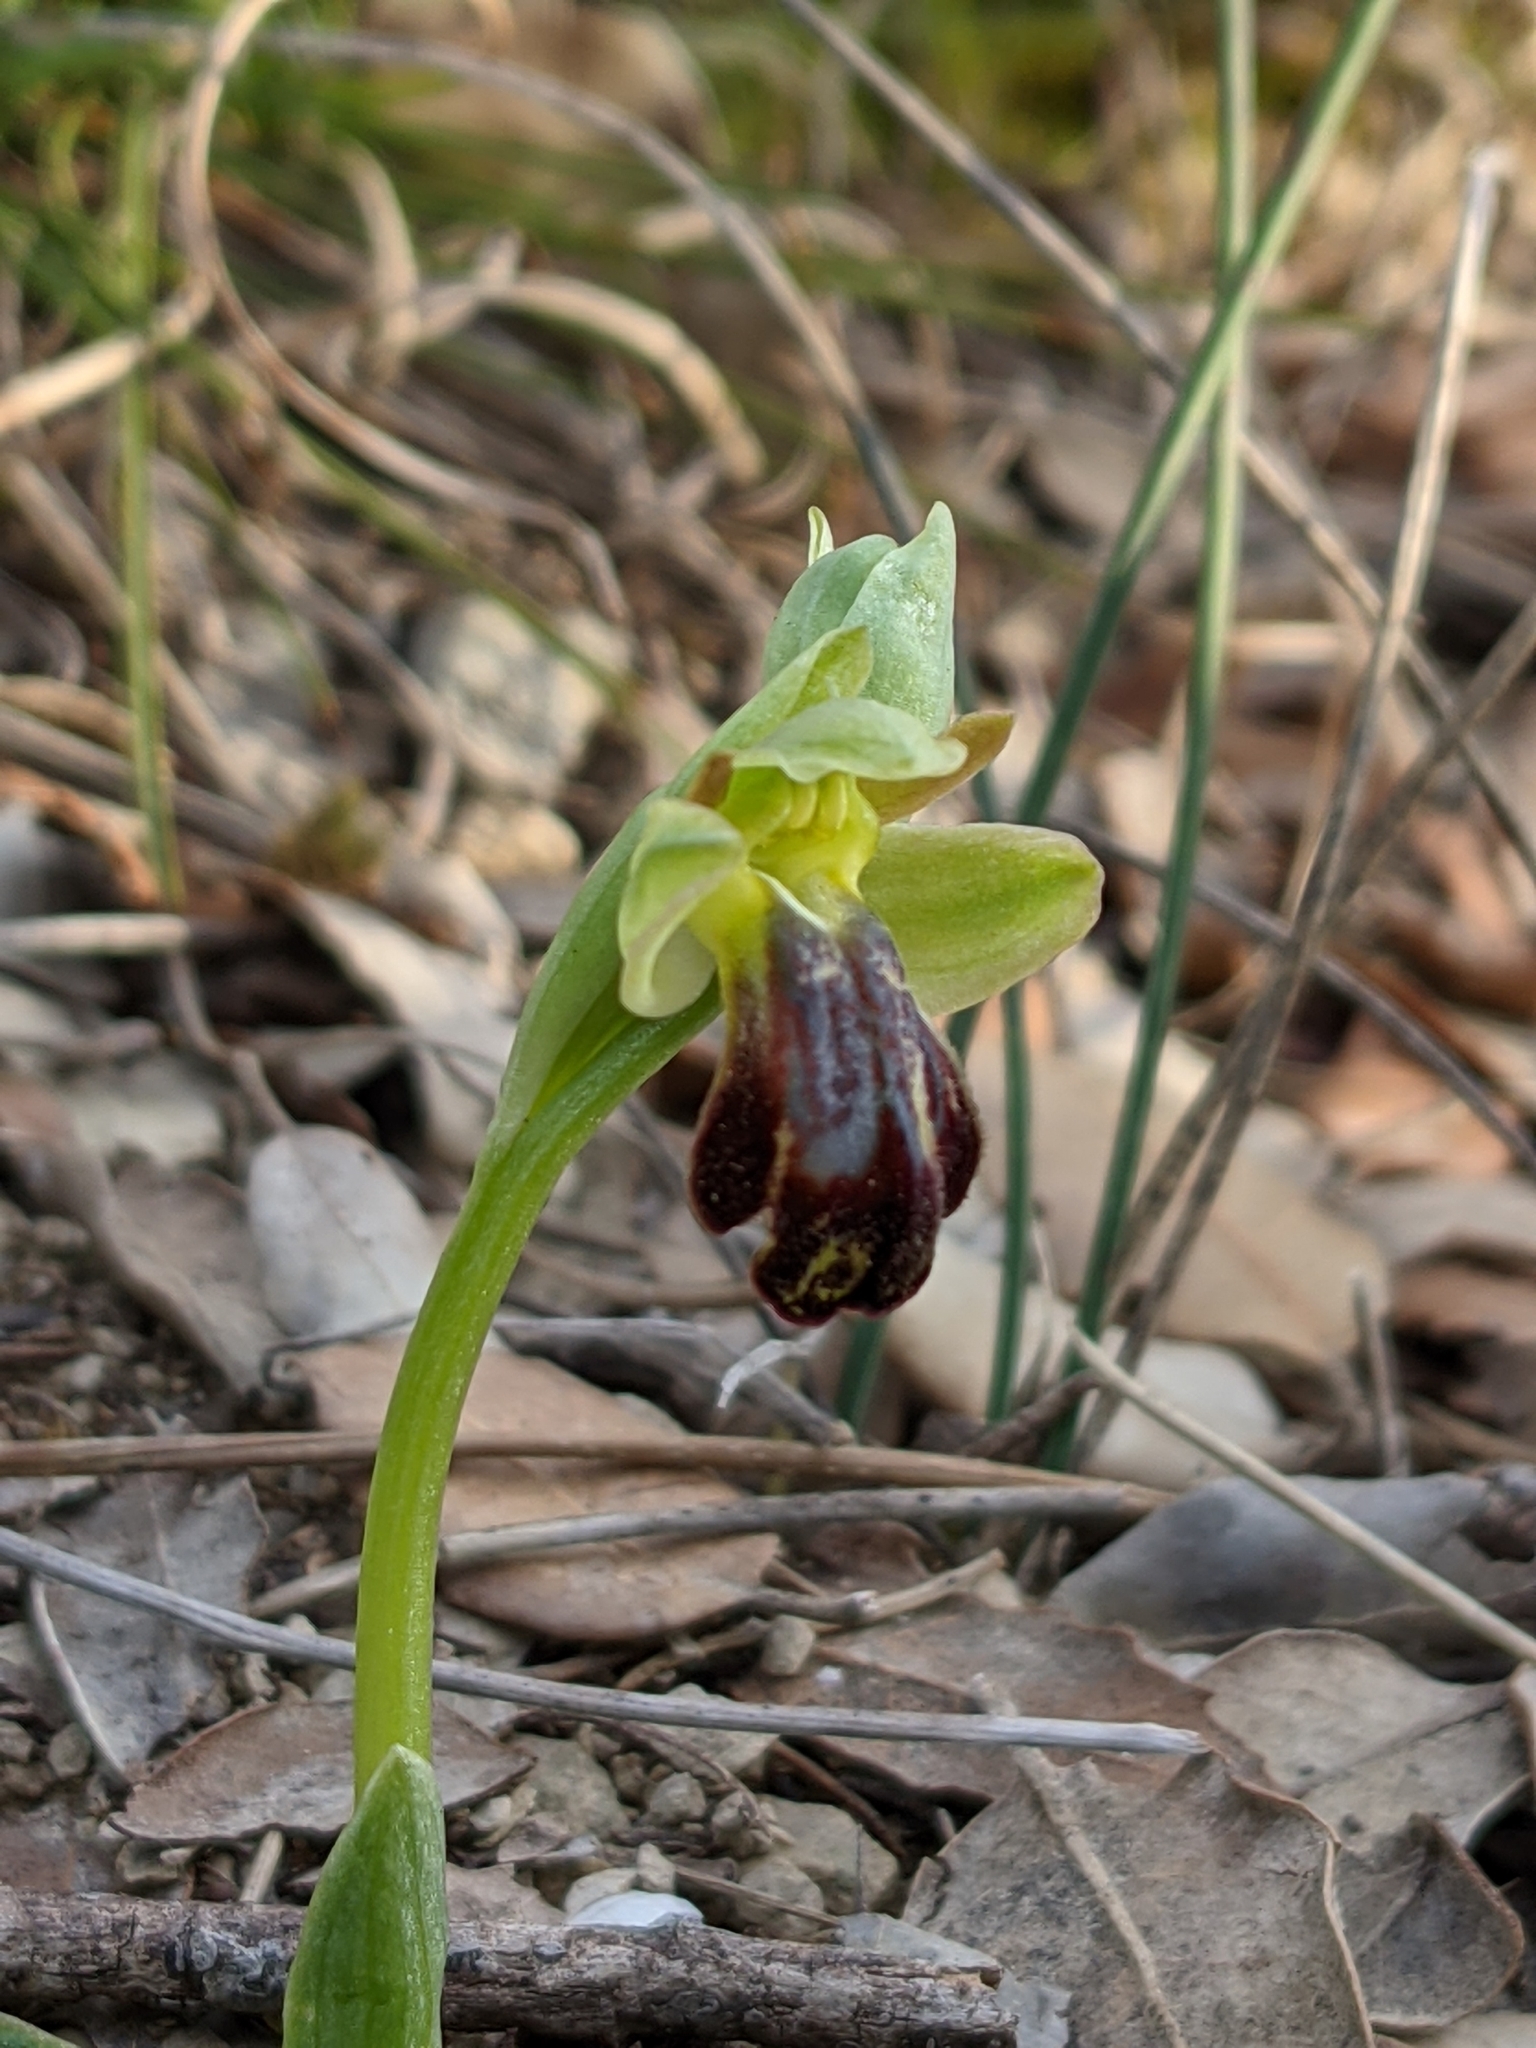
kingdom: Plantae
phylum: Tracheophyta
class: Liliopsida
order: Asparagales
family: Orchidaceae
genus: Ophrys
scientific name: Ophrys fusca
